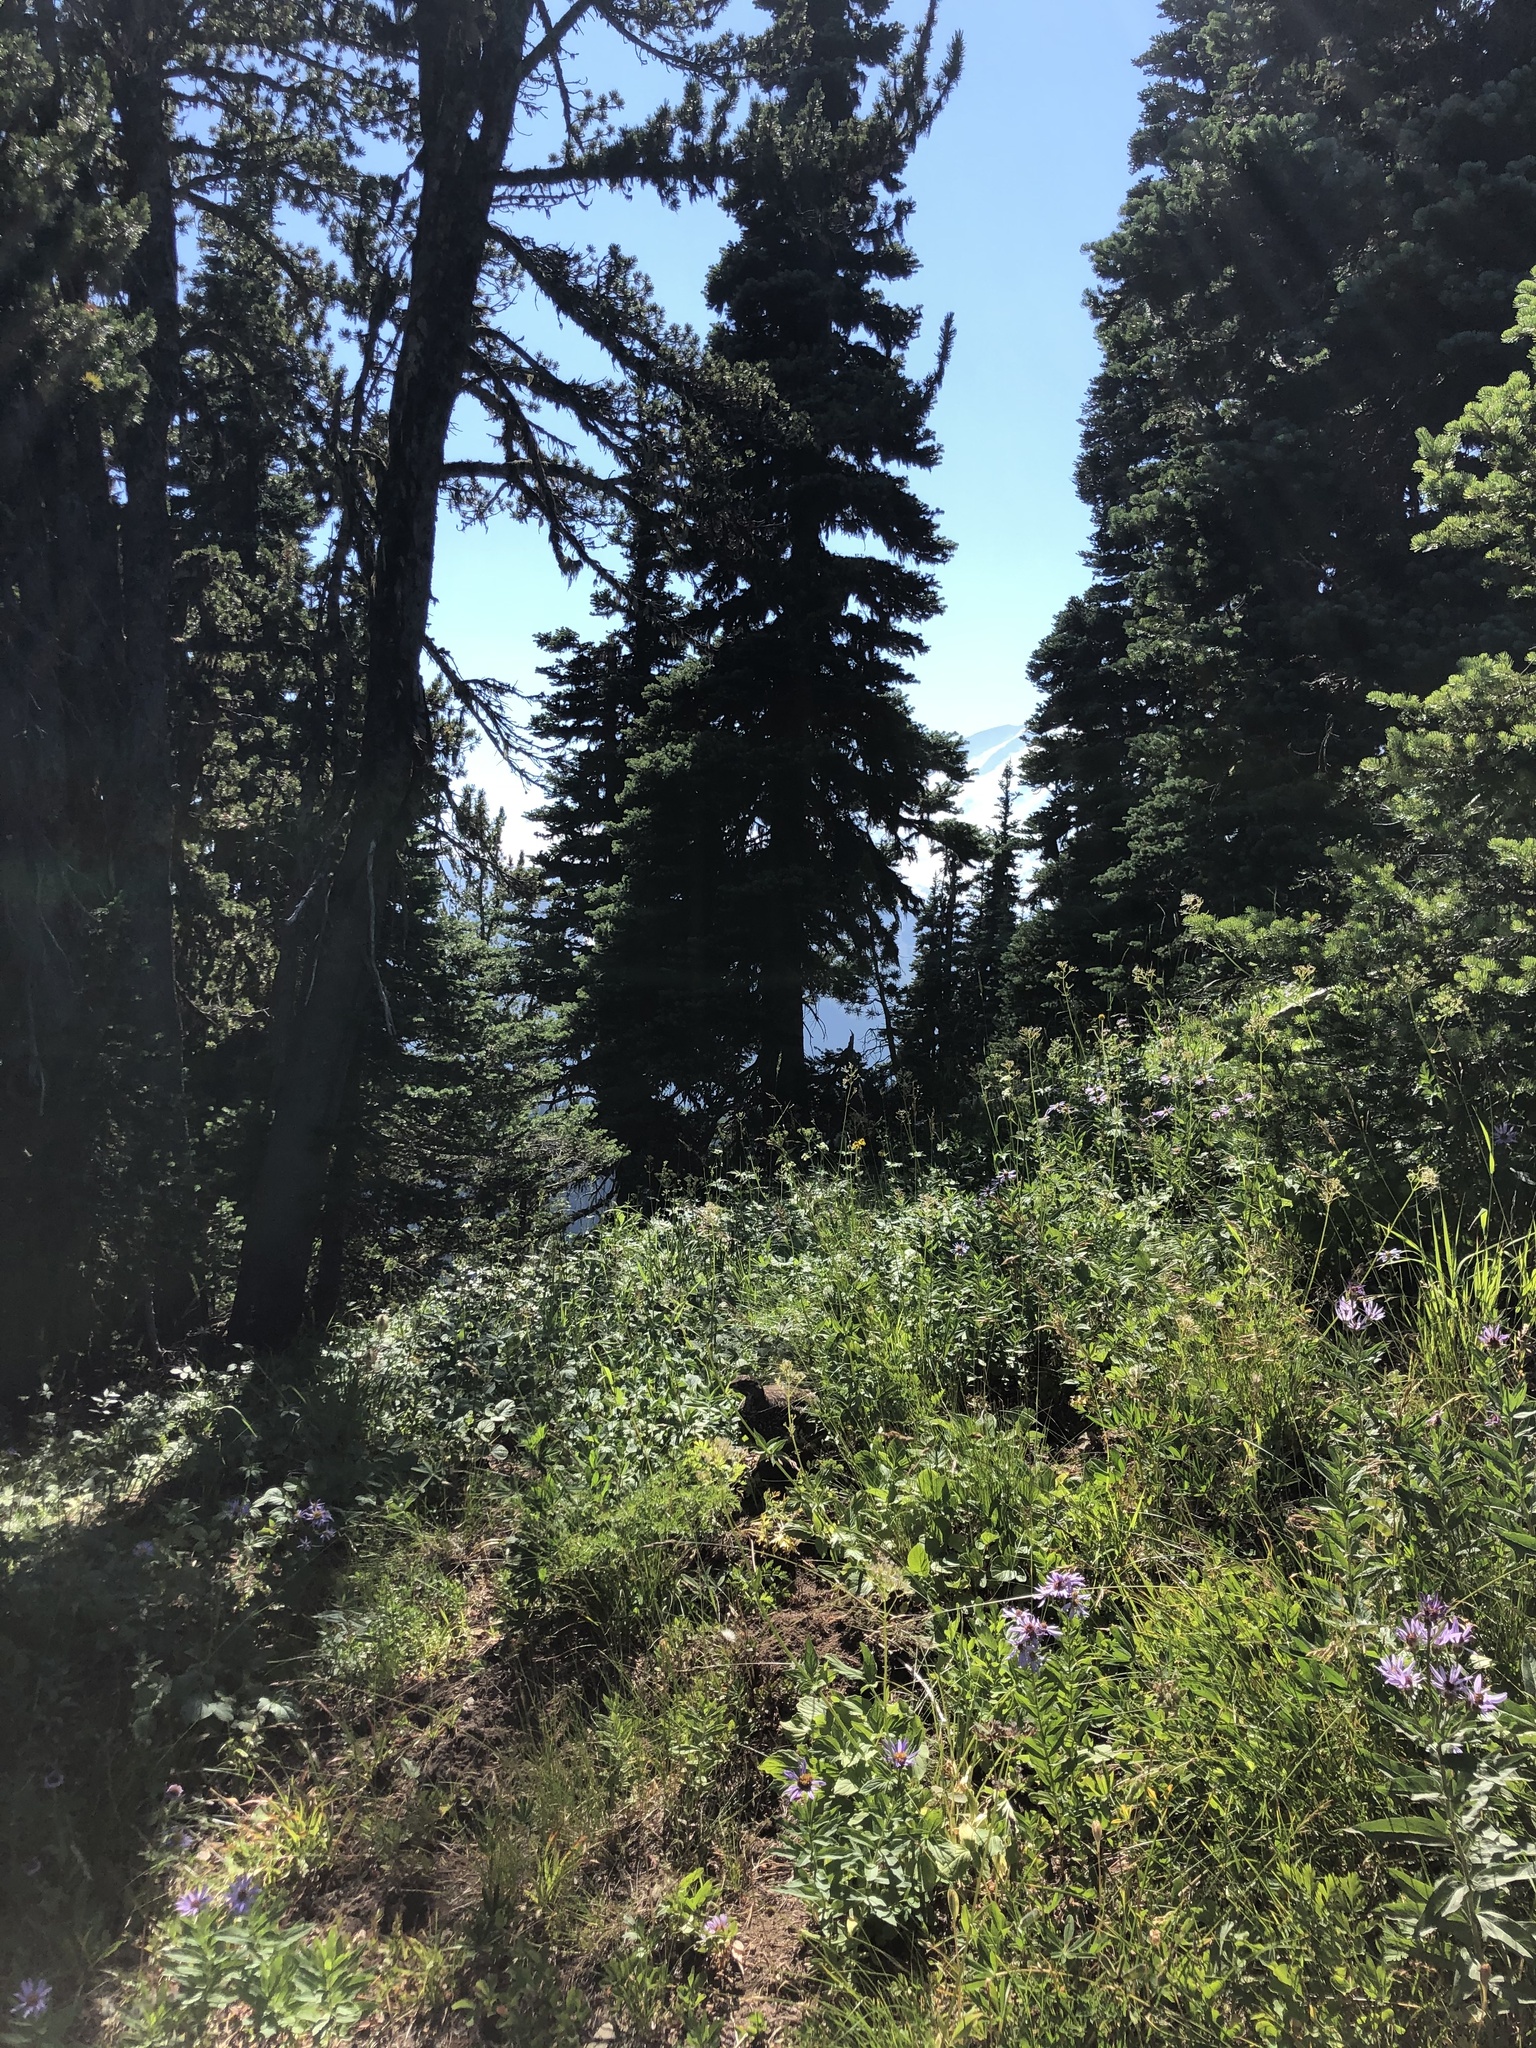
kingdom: Plantae
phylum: Tracheophyta
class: Pinopsida
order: Pinales
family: Pinaceae
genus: Abies
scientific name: Abies lasiocarpa
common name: Subalpine fir
